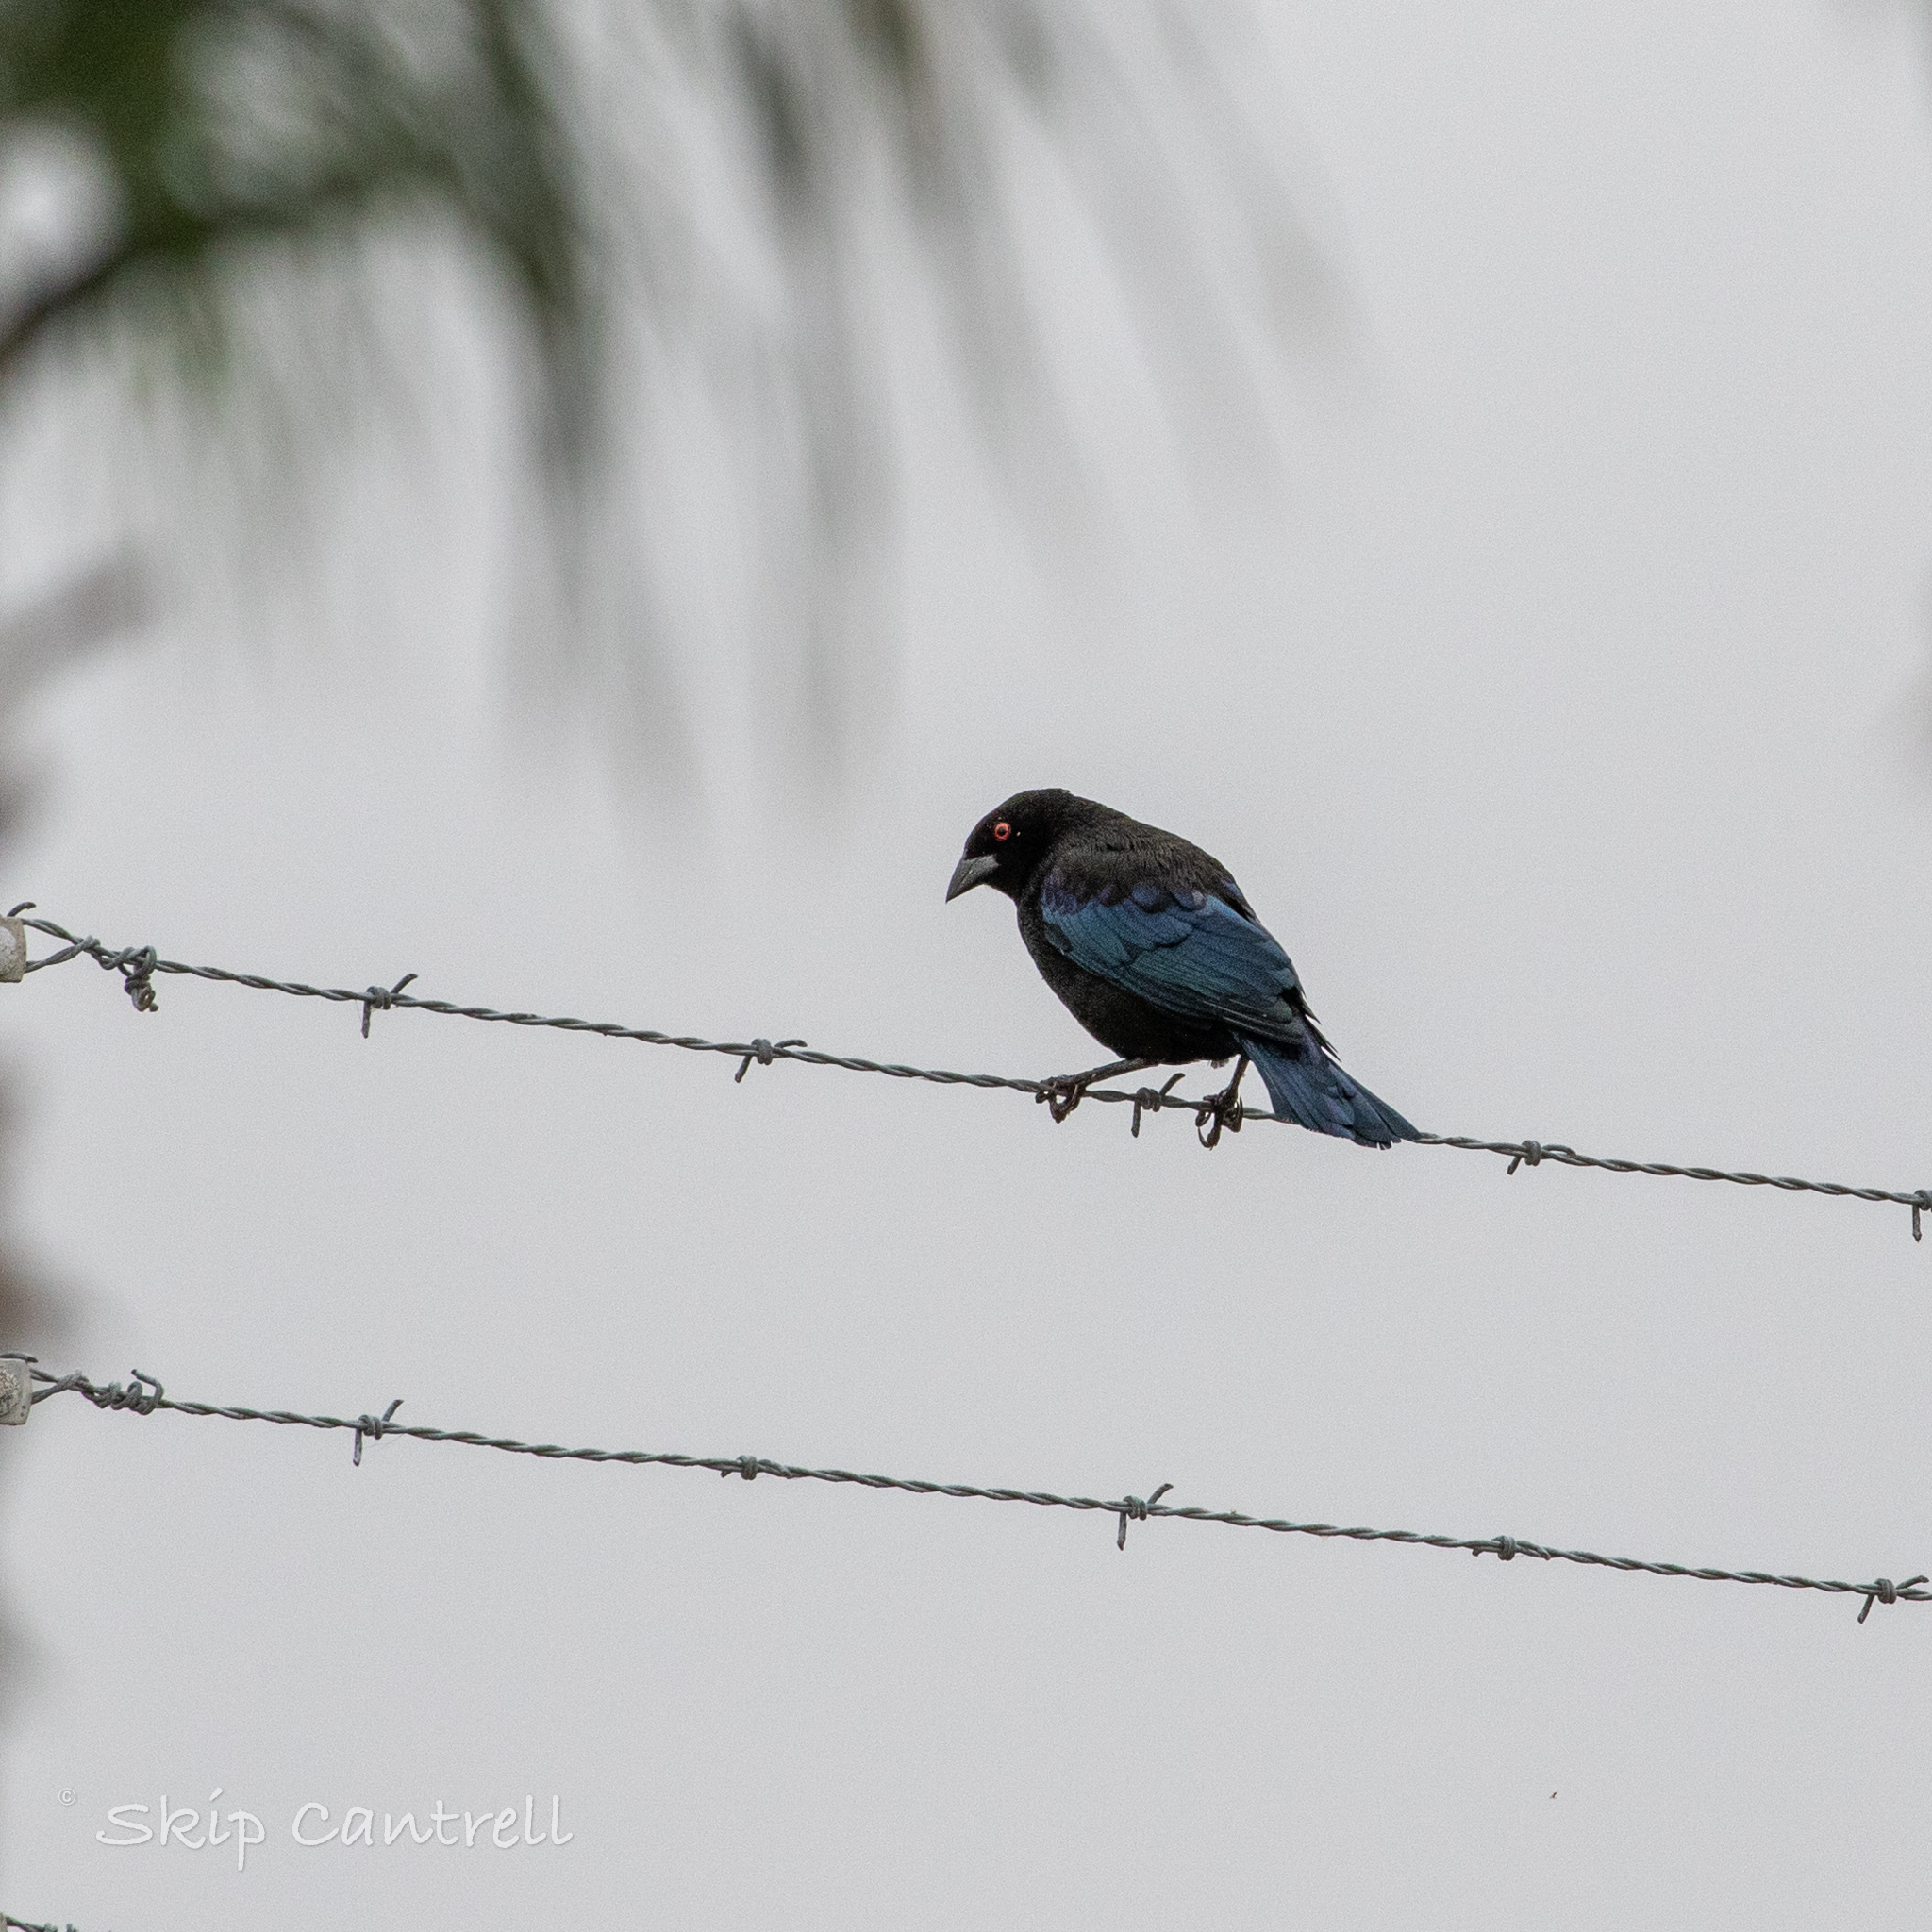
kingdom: Animalia
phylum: Chordata
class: Aves
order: Passeriformes
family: Icteridae
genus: Molothrus
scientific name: Molothrus aeneus
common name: Bronzed cowbird
